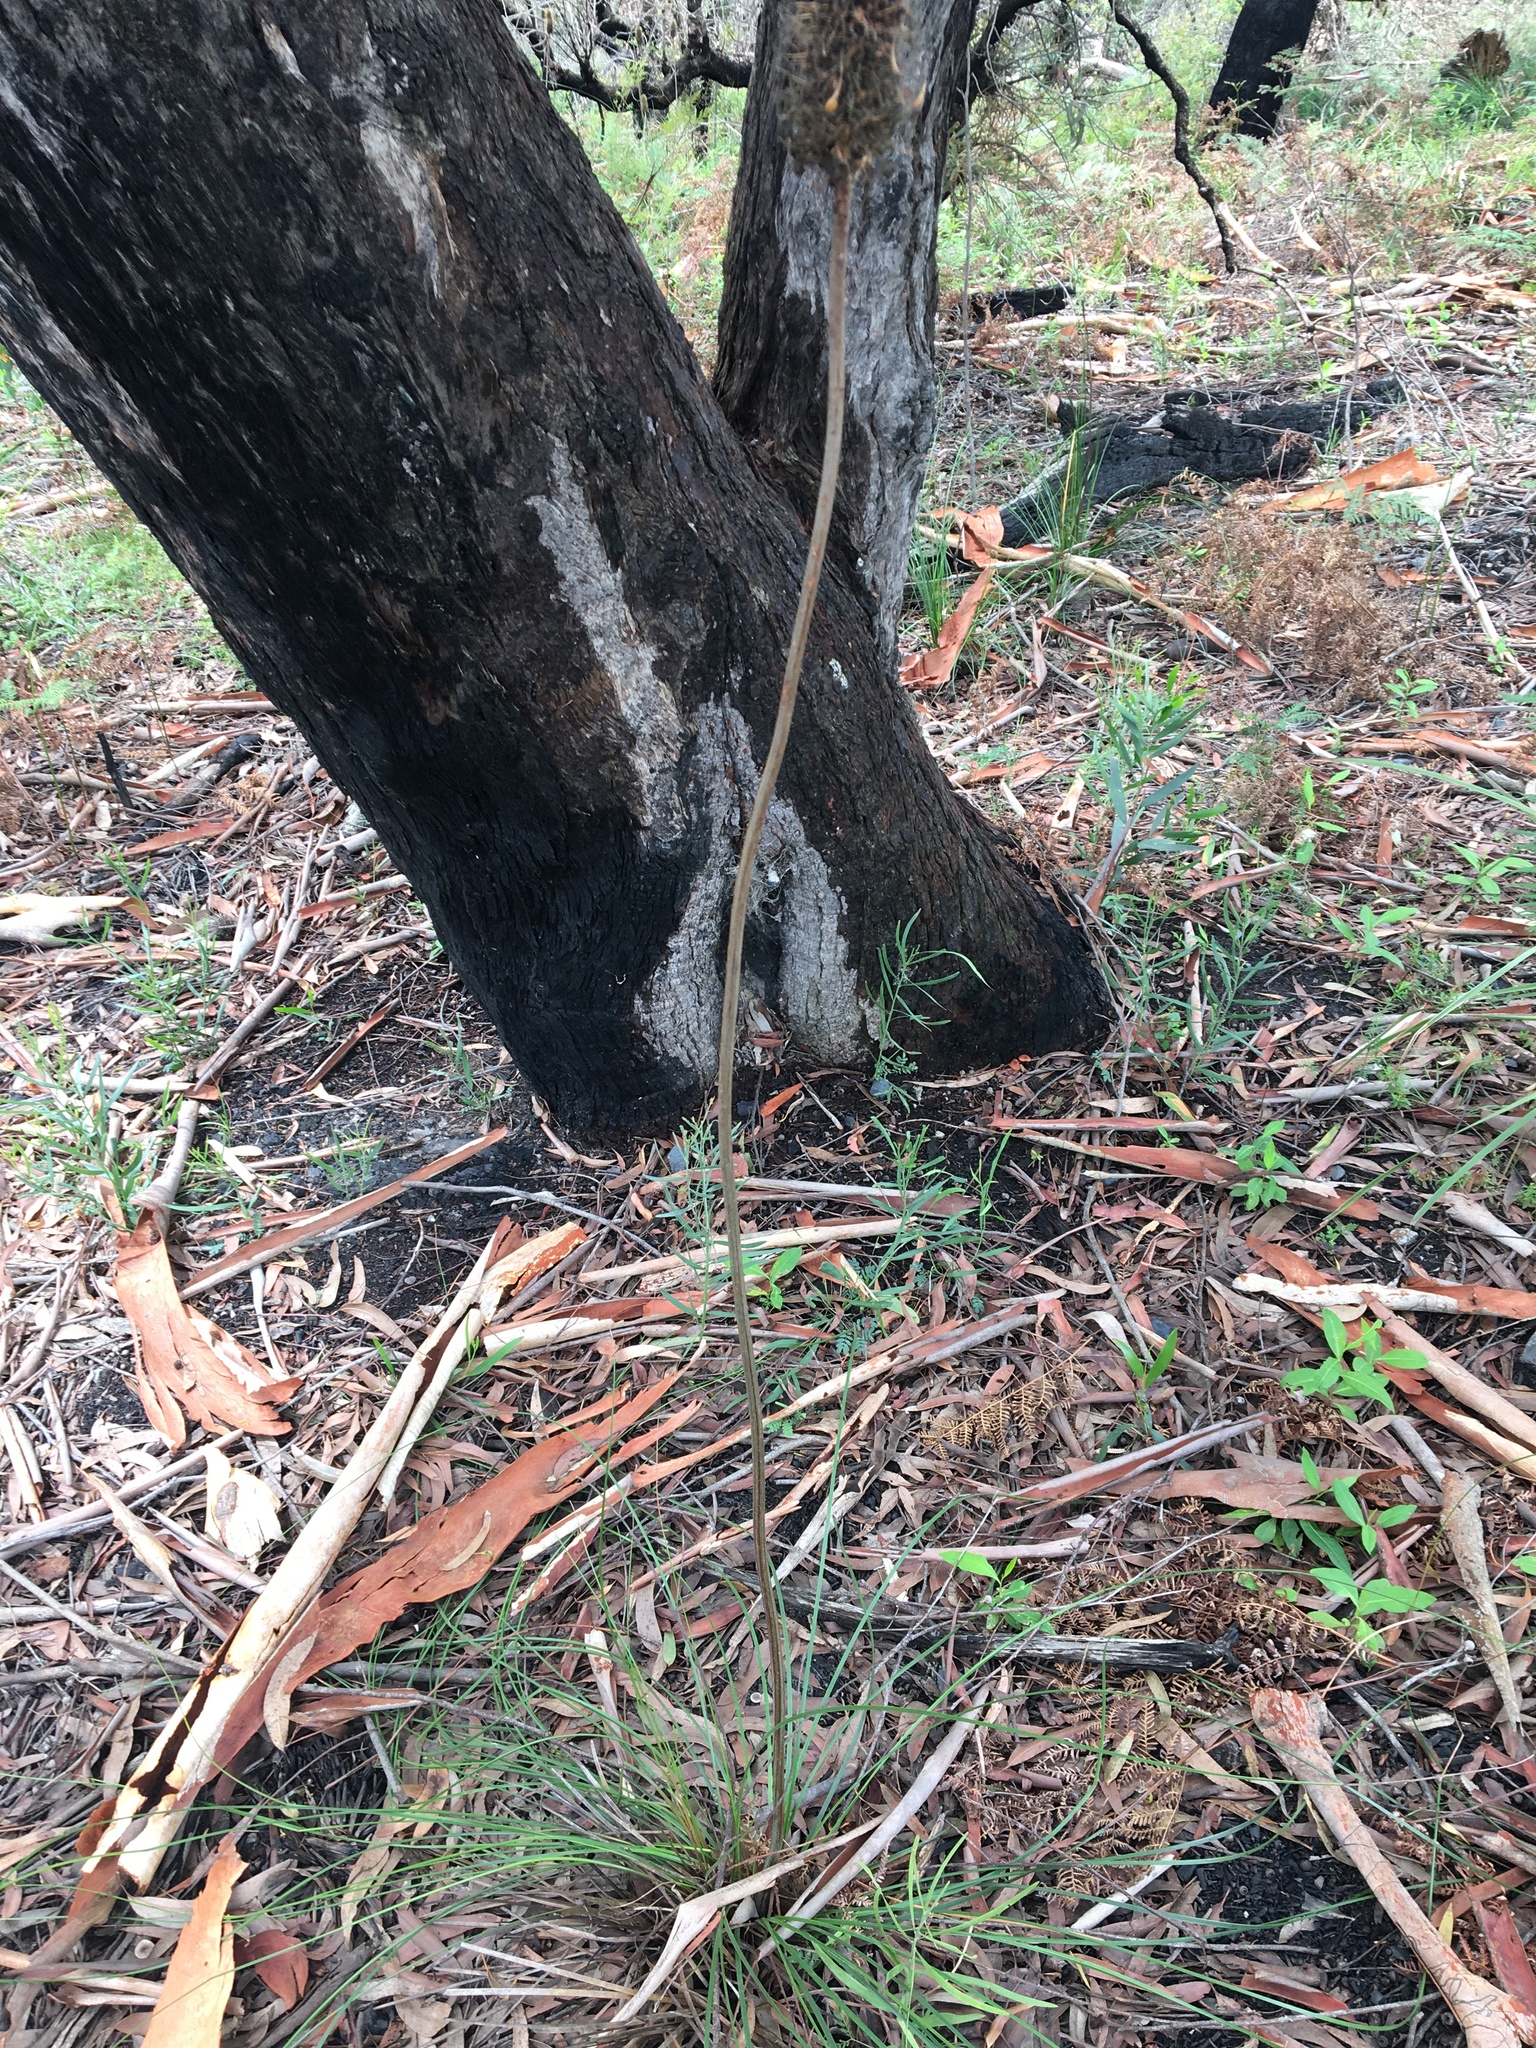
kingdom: Plantae
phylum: Tracheophyta
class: Liliopsida
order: Asparagales
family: Asphodelaceae
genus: Xanthorrhoea
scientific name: Xanthorrhoea macronema
